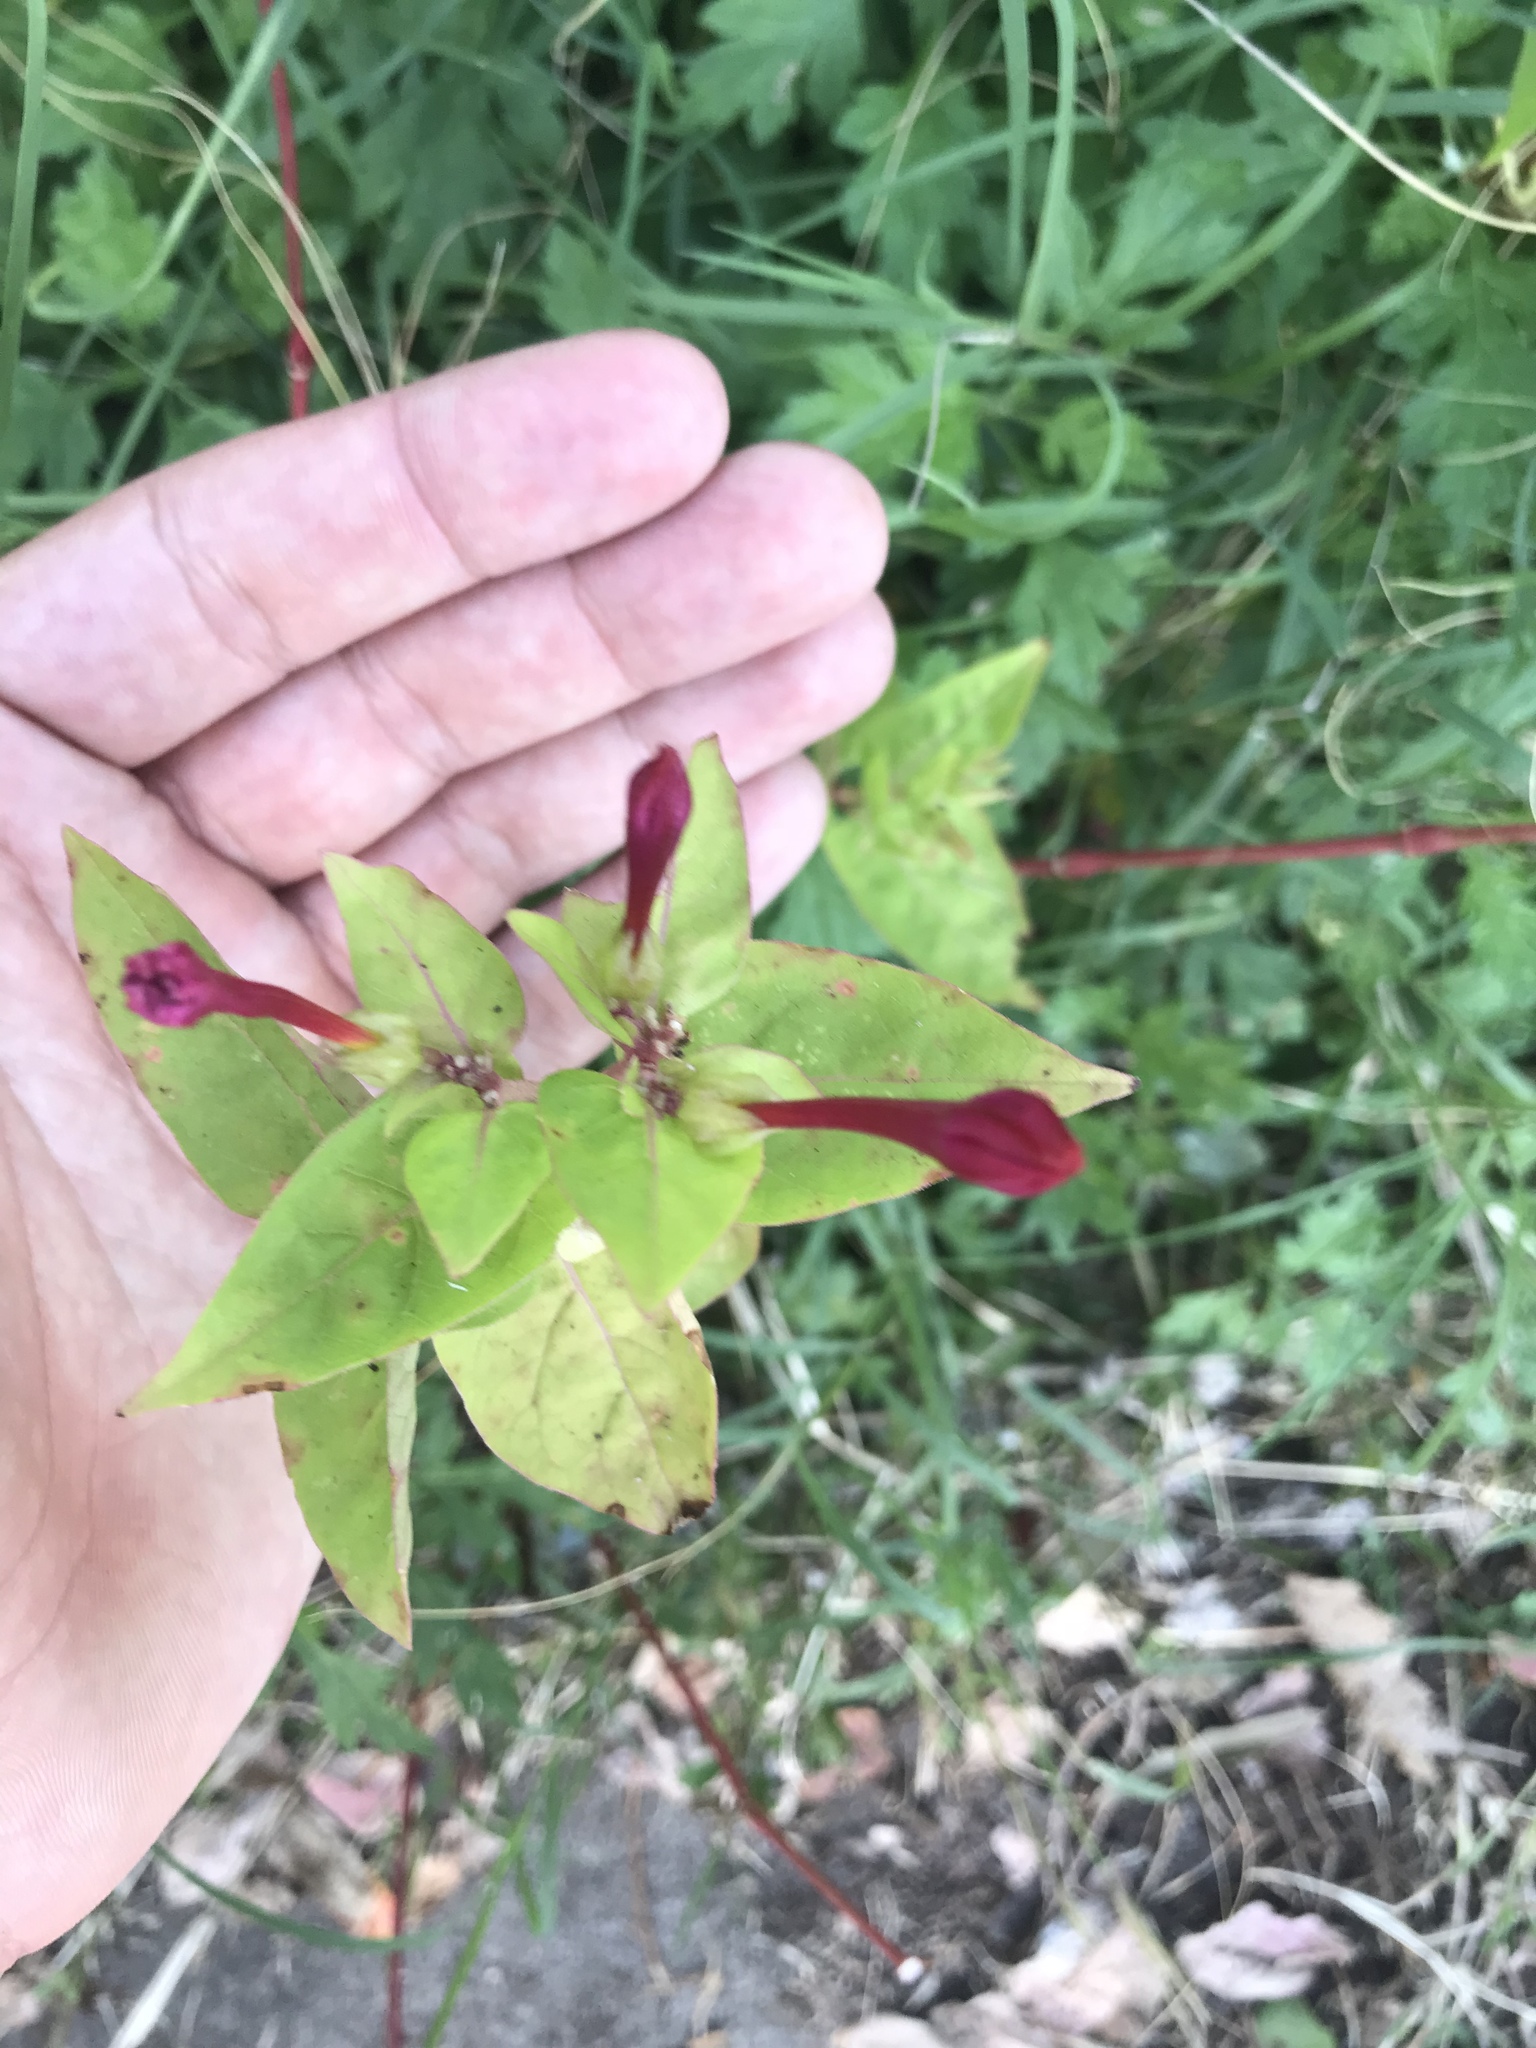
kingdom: Plantae
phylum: Tracheophyta
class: Magnoliopsida
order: Caryophyllales
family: Nyctaginaceae
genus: Mirabilis
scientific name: Mirabilis jalapa
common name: Marvel-of-peru
